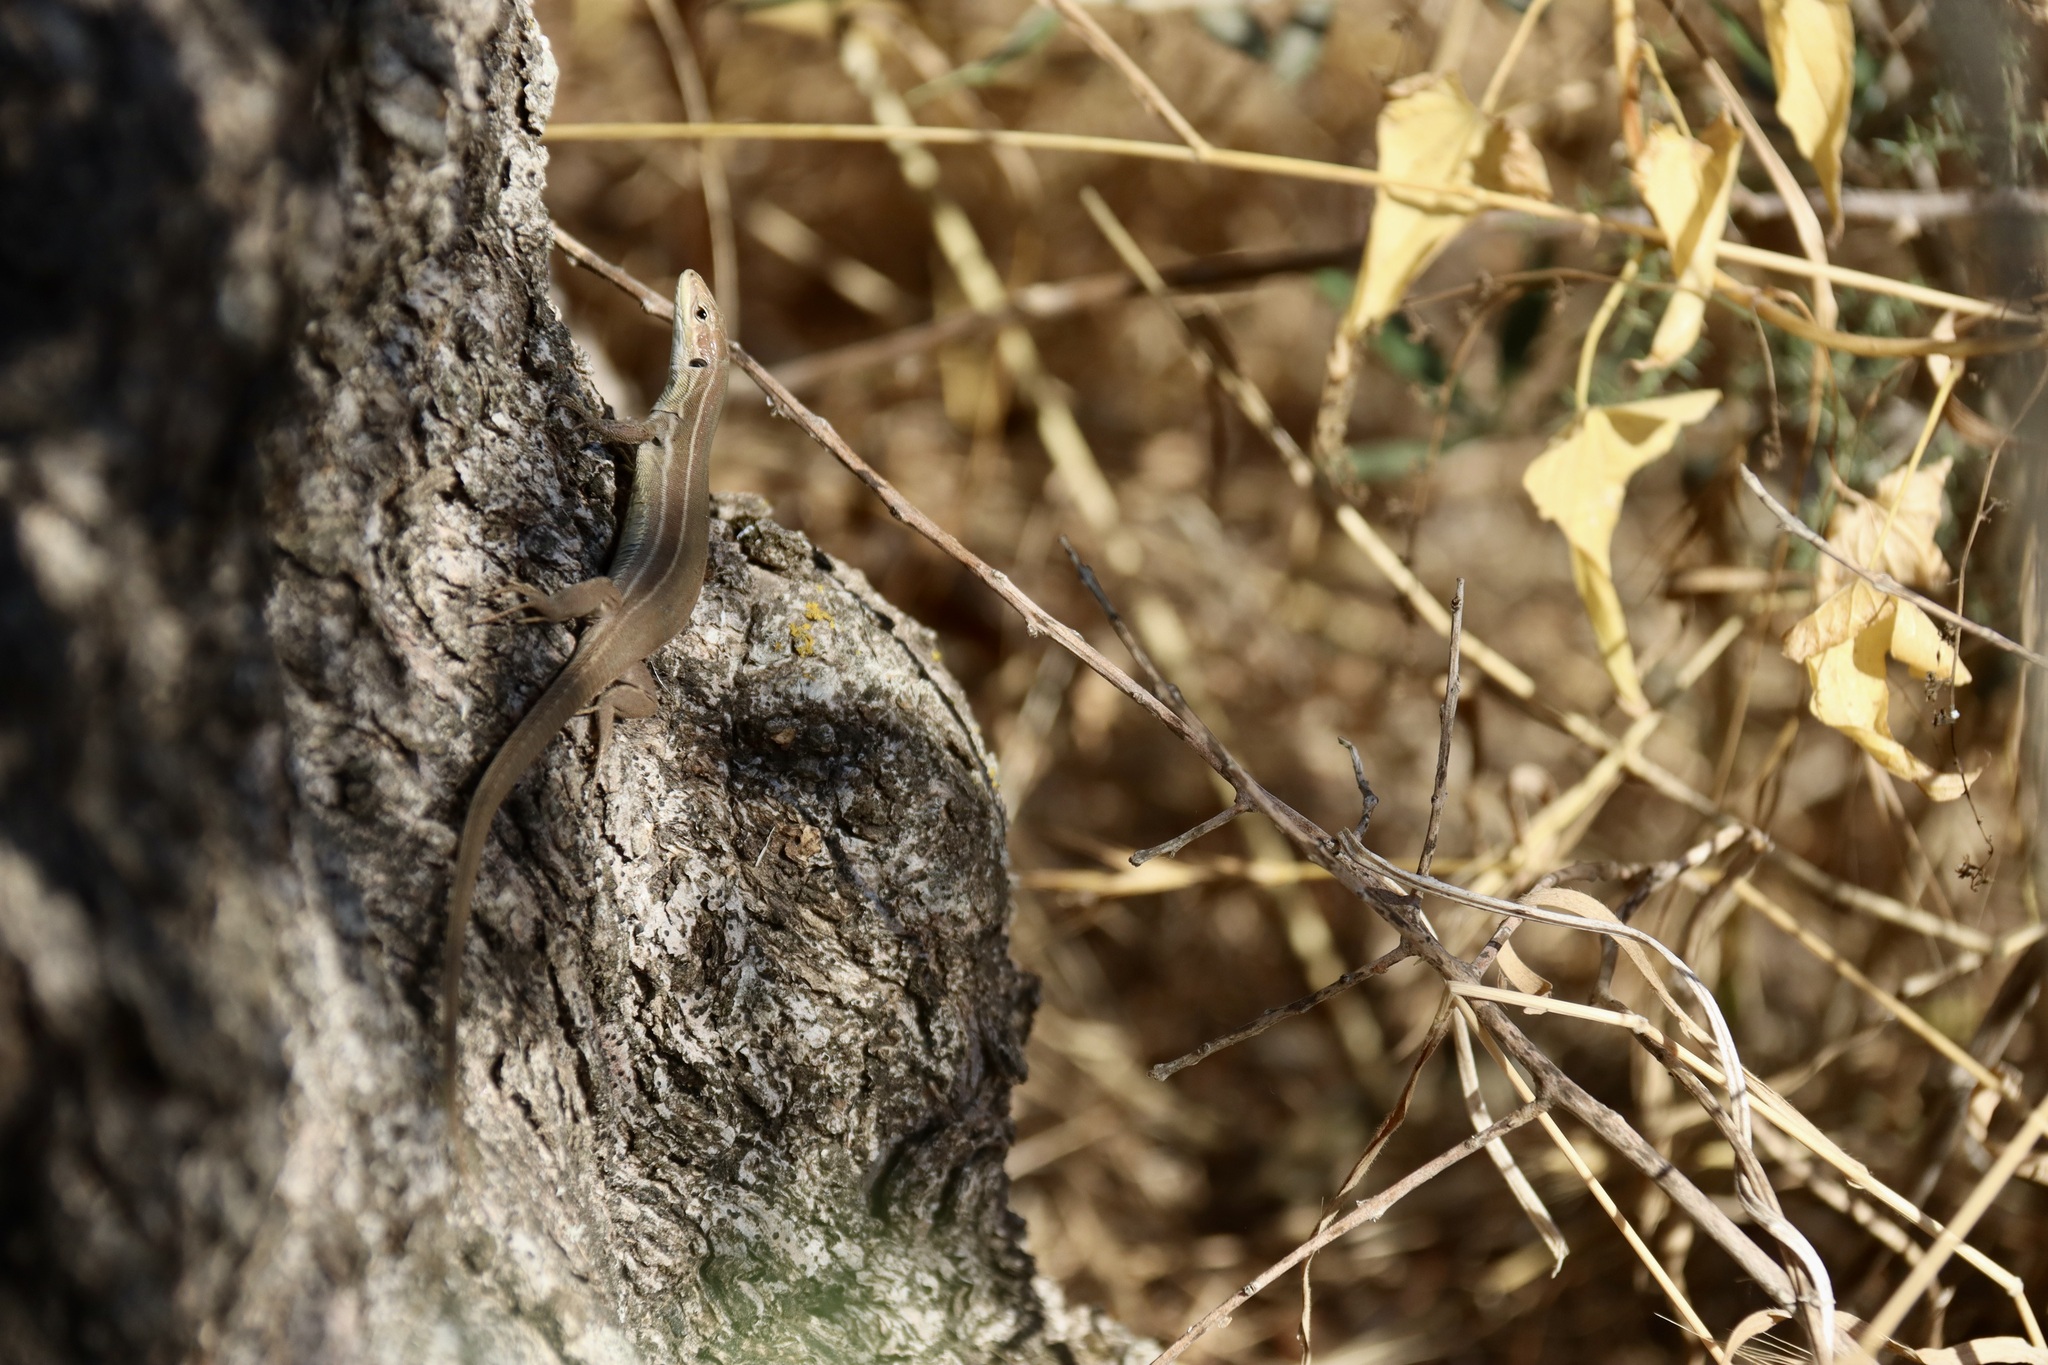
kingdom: Animalia
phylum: Chordata
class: Squamata
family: Lacertidae
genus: Podarcis
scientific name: Podarcis ionicus
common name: Ionian wall lizard
